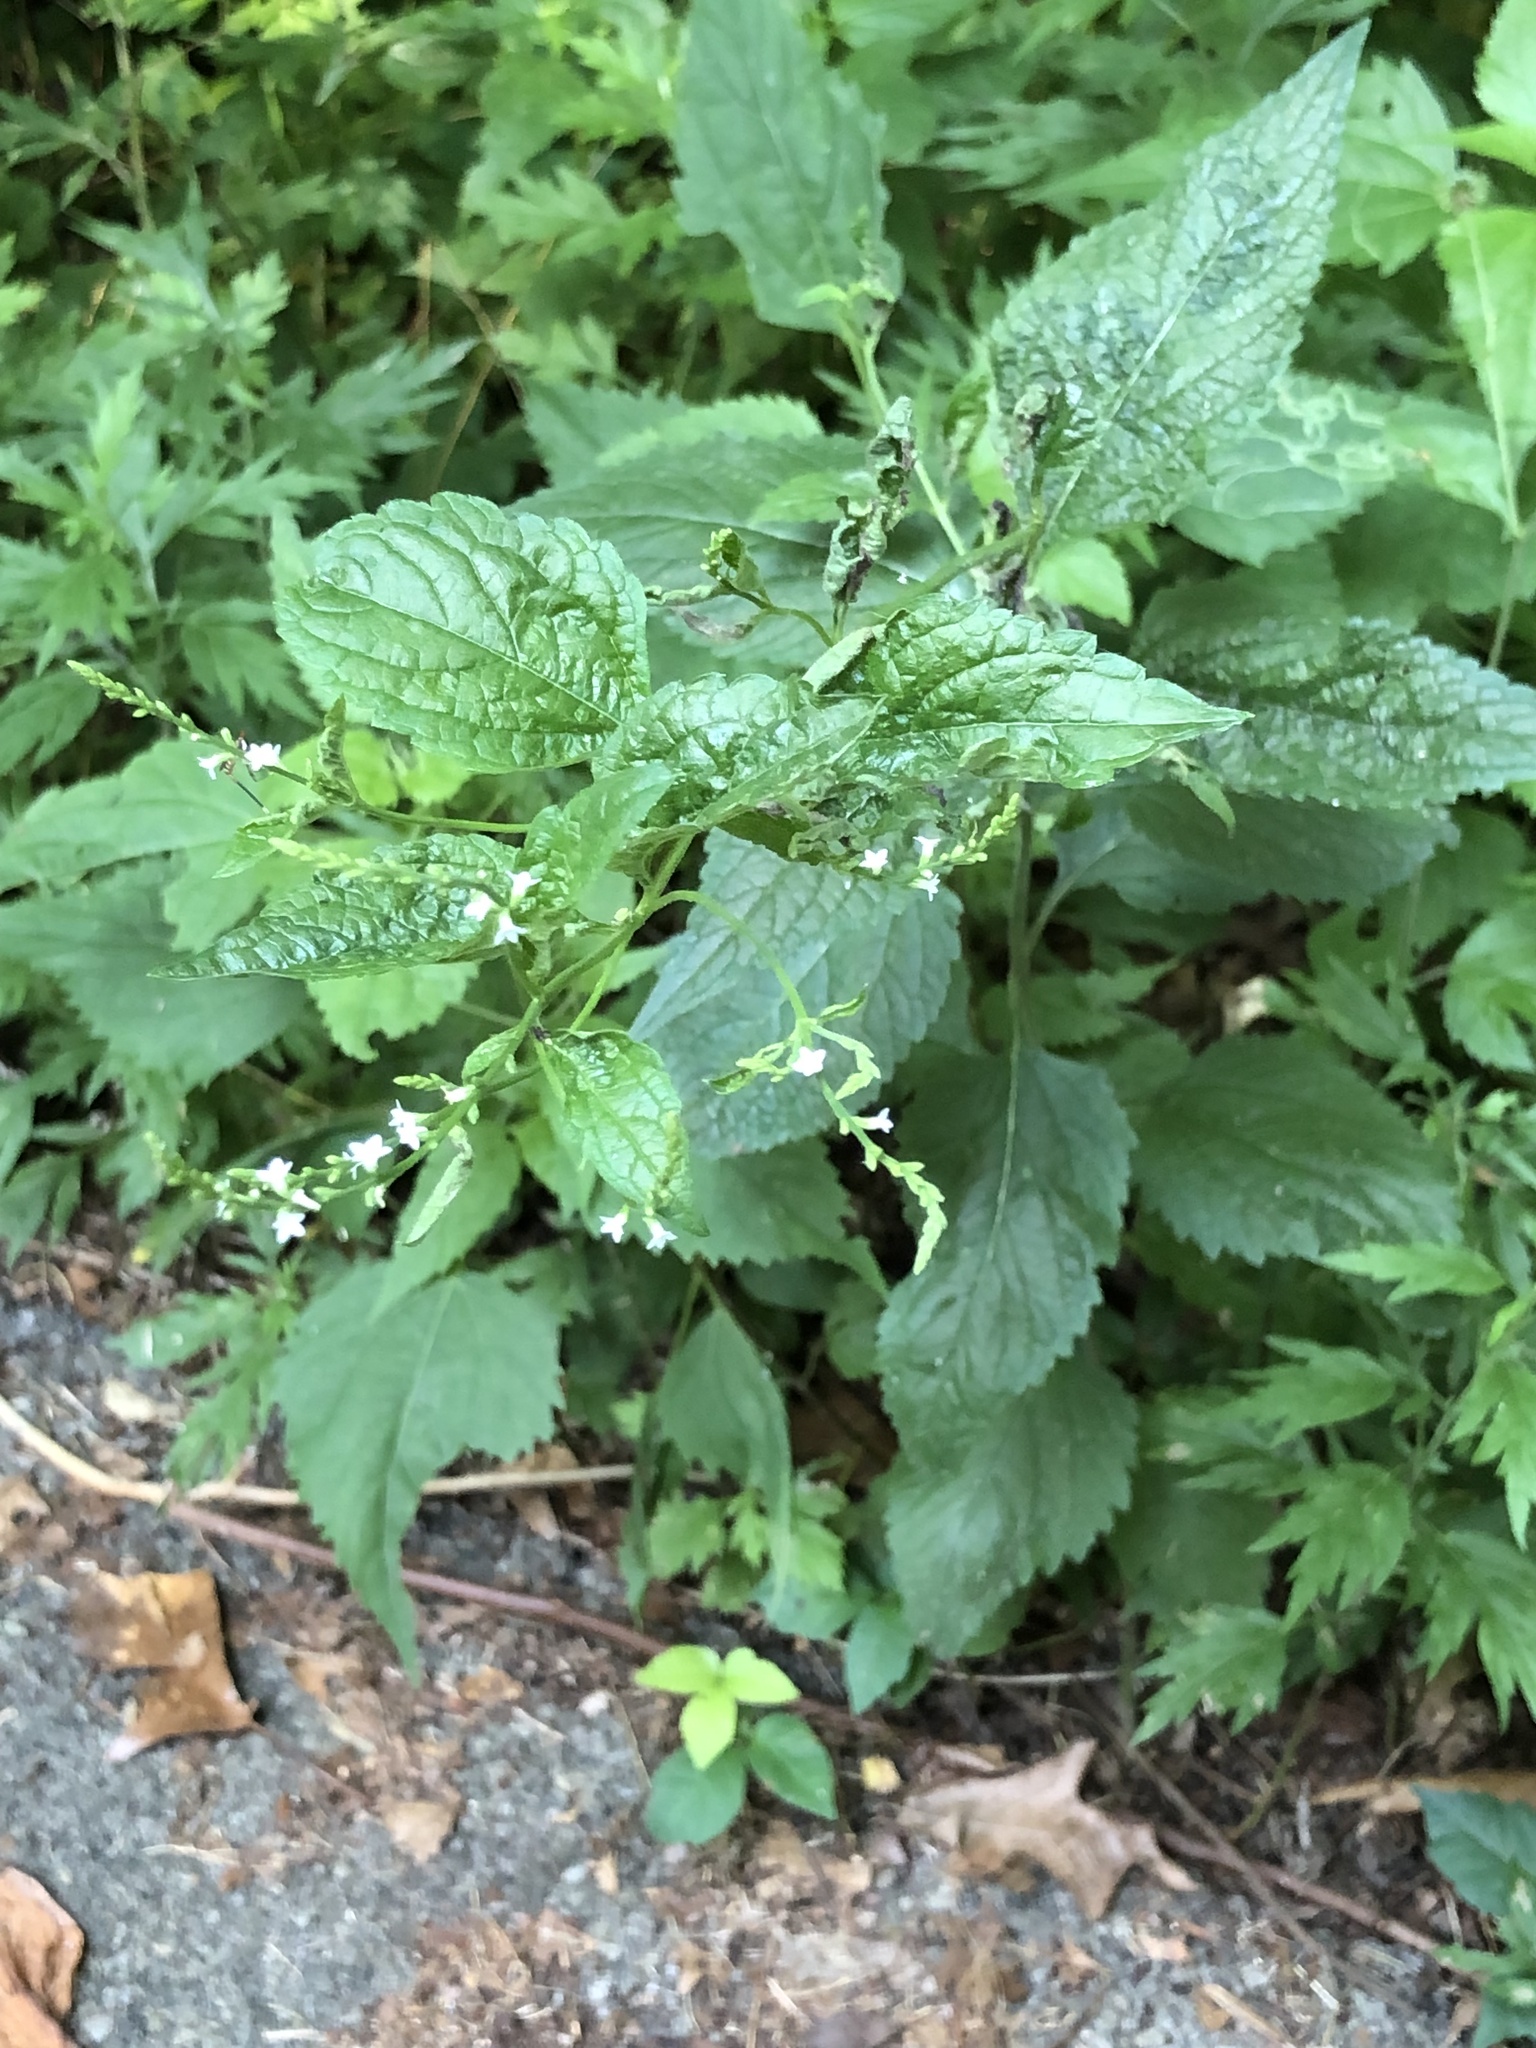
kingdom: Plantae
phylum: Tracheophyta
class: Magnoliopsida
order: Lamiales
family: Verbenaceae
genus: Verbena
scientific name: Verbena urticifolia
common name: Nettle-leaved vervain
